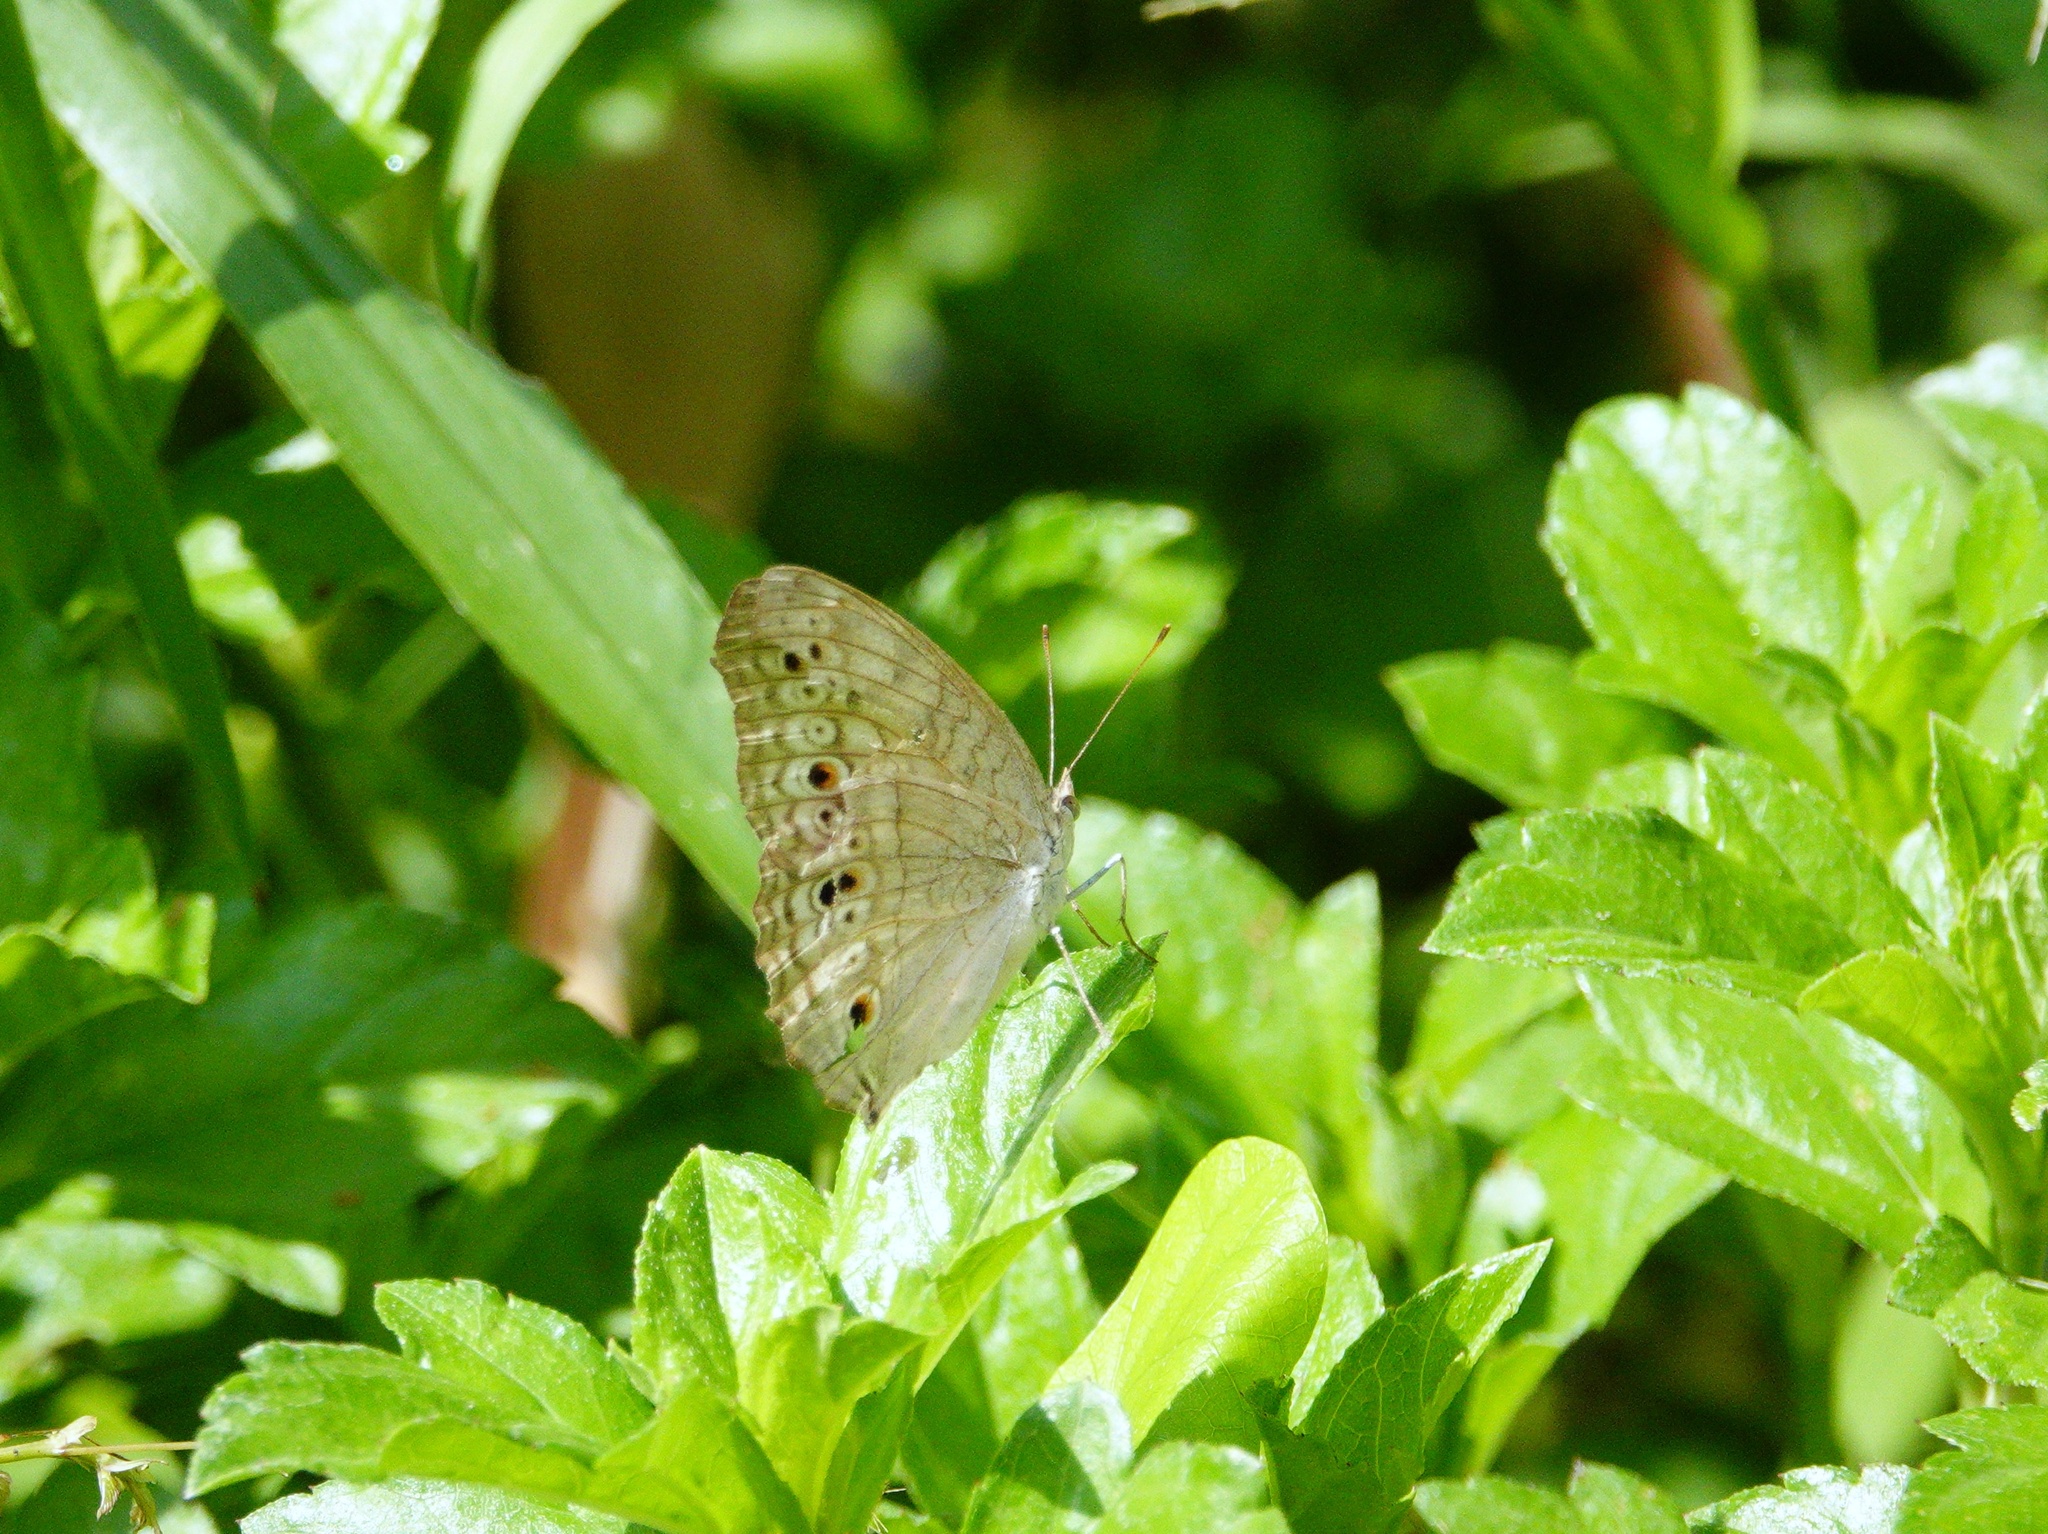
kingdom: Animalia
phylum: Arthropoda
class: Insecta
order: Lepidoptera
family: Nymphalidae
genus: Junonia
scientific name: Junonia atlites
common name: Grey pansy
